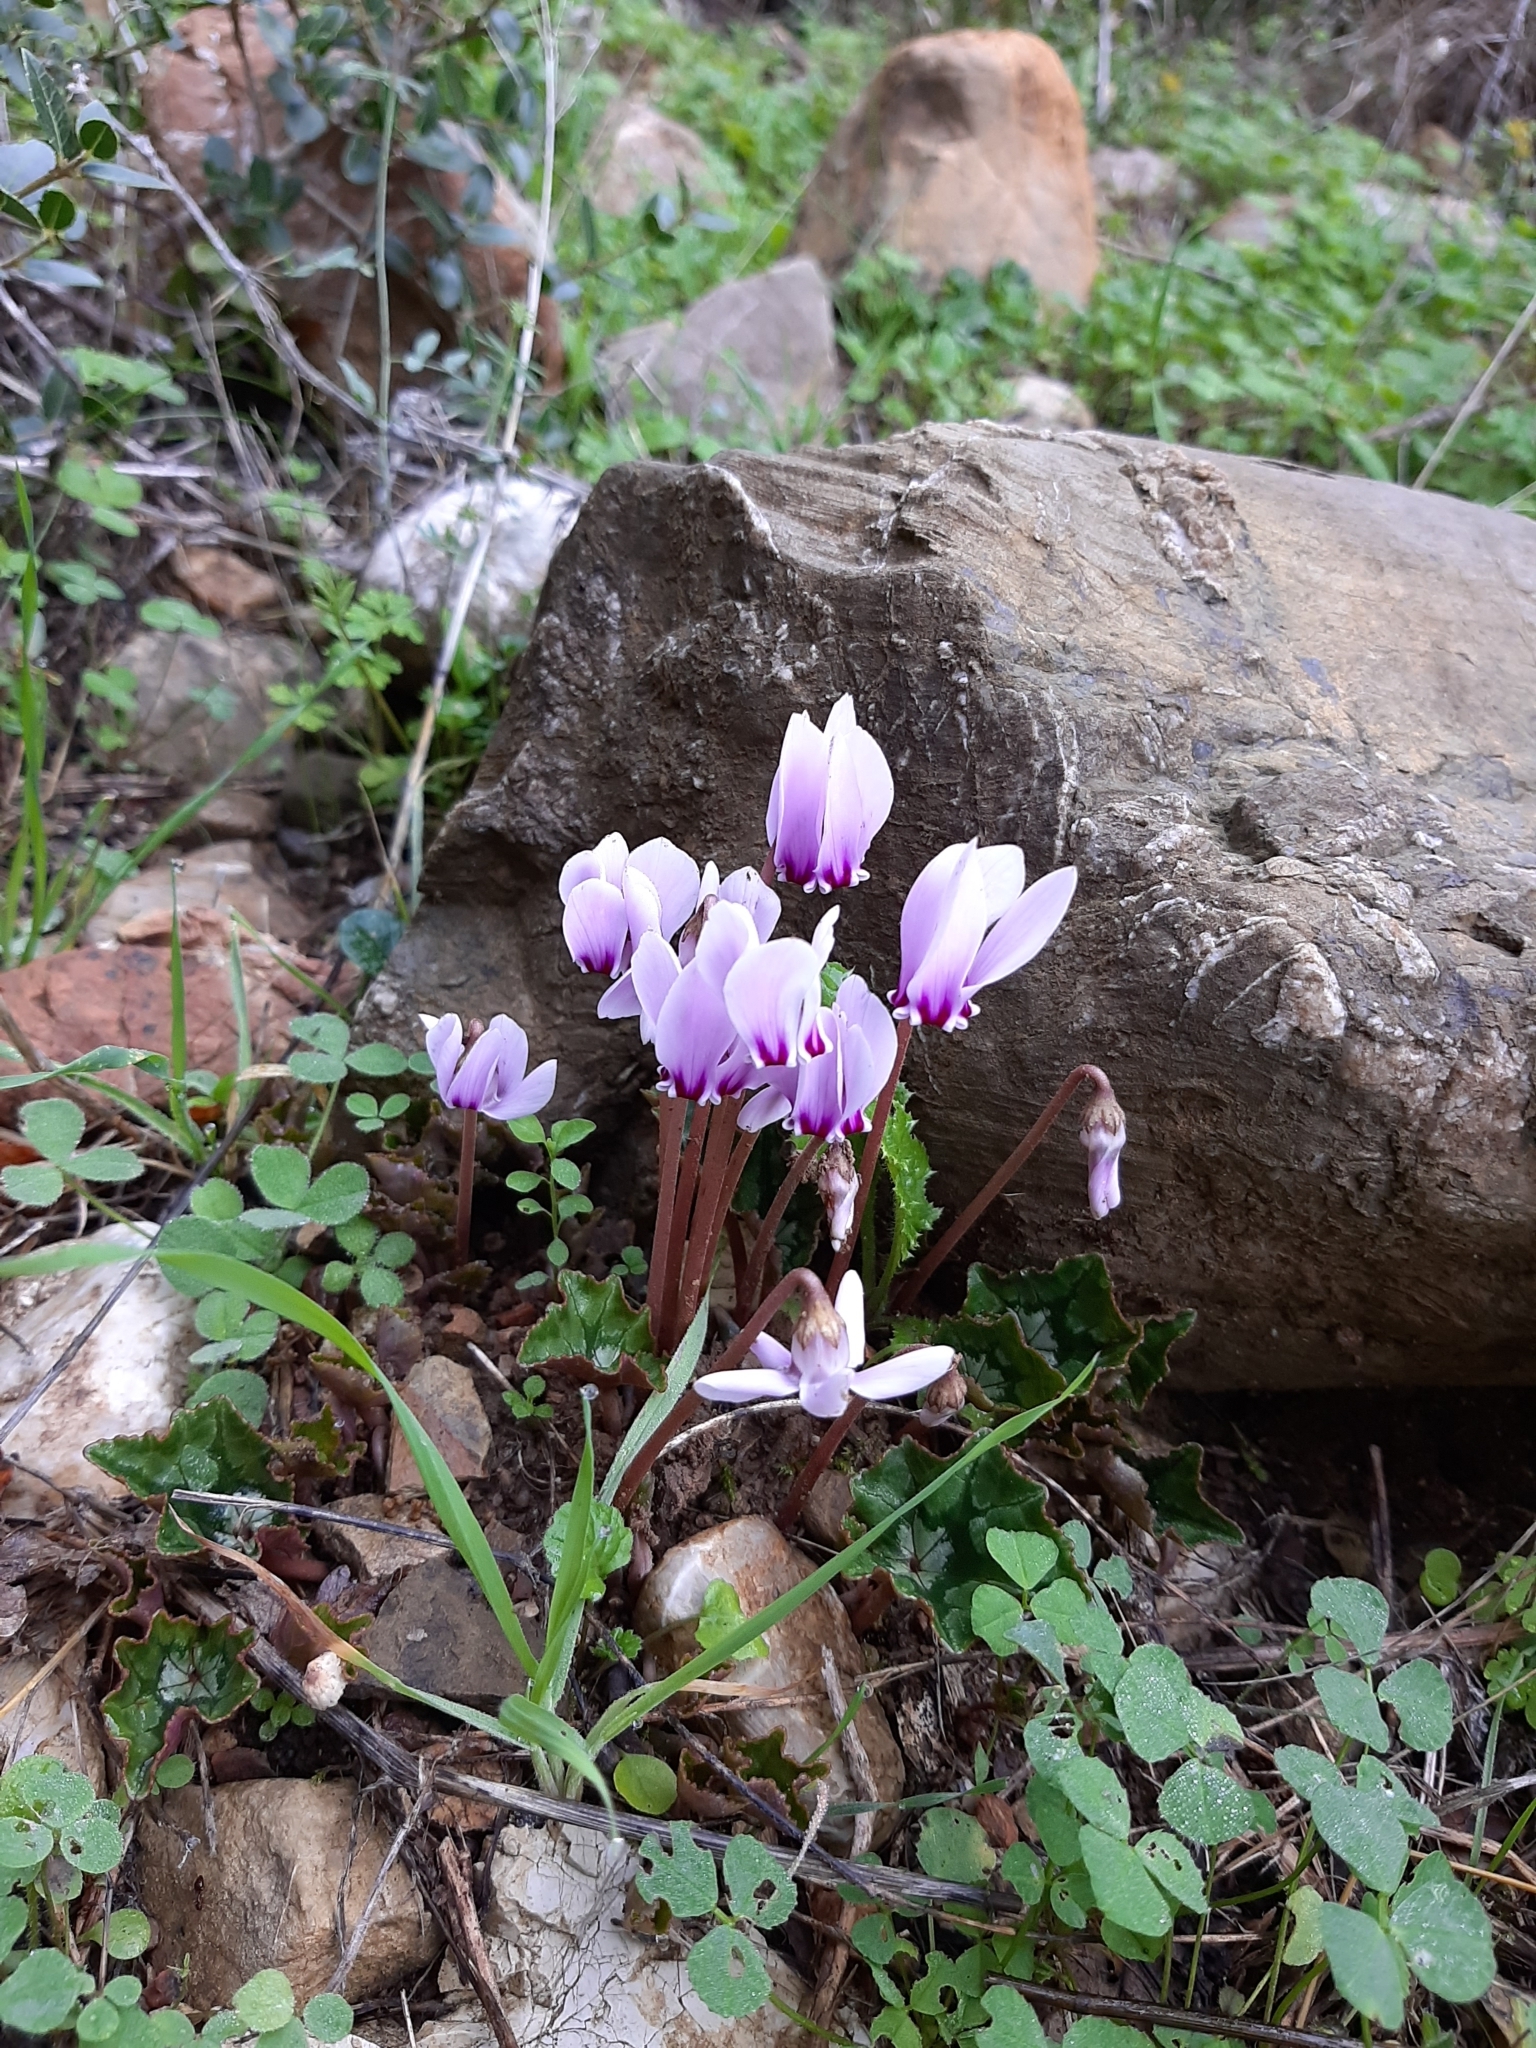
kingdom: Plantae
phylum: Tracheophyta
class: Magnoliopsida
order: Ericales
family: Primulaceae
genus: Cyclamen
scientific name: Cyclamen hederifolium
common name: Sowbread
